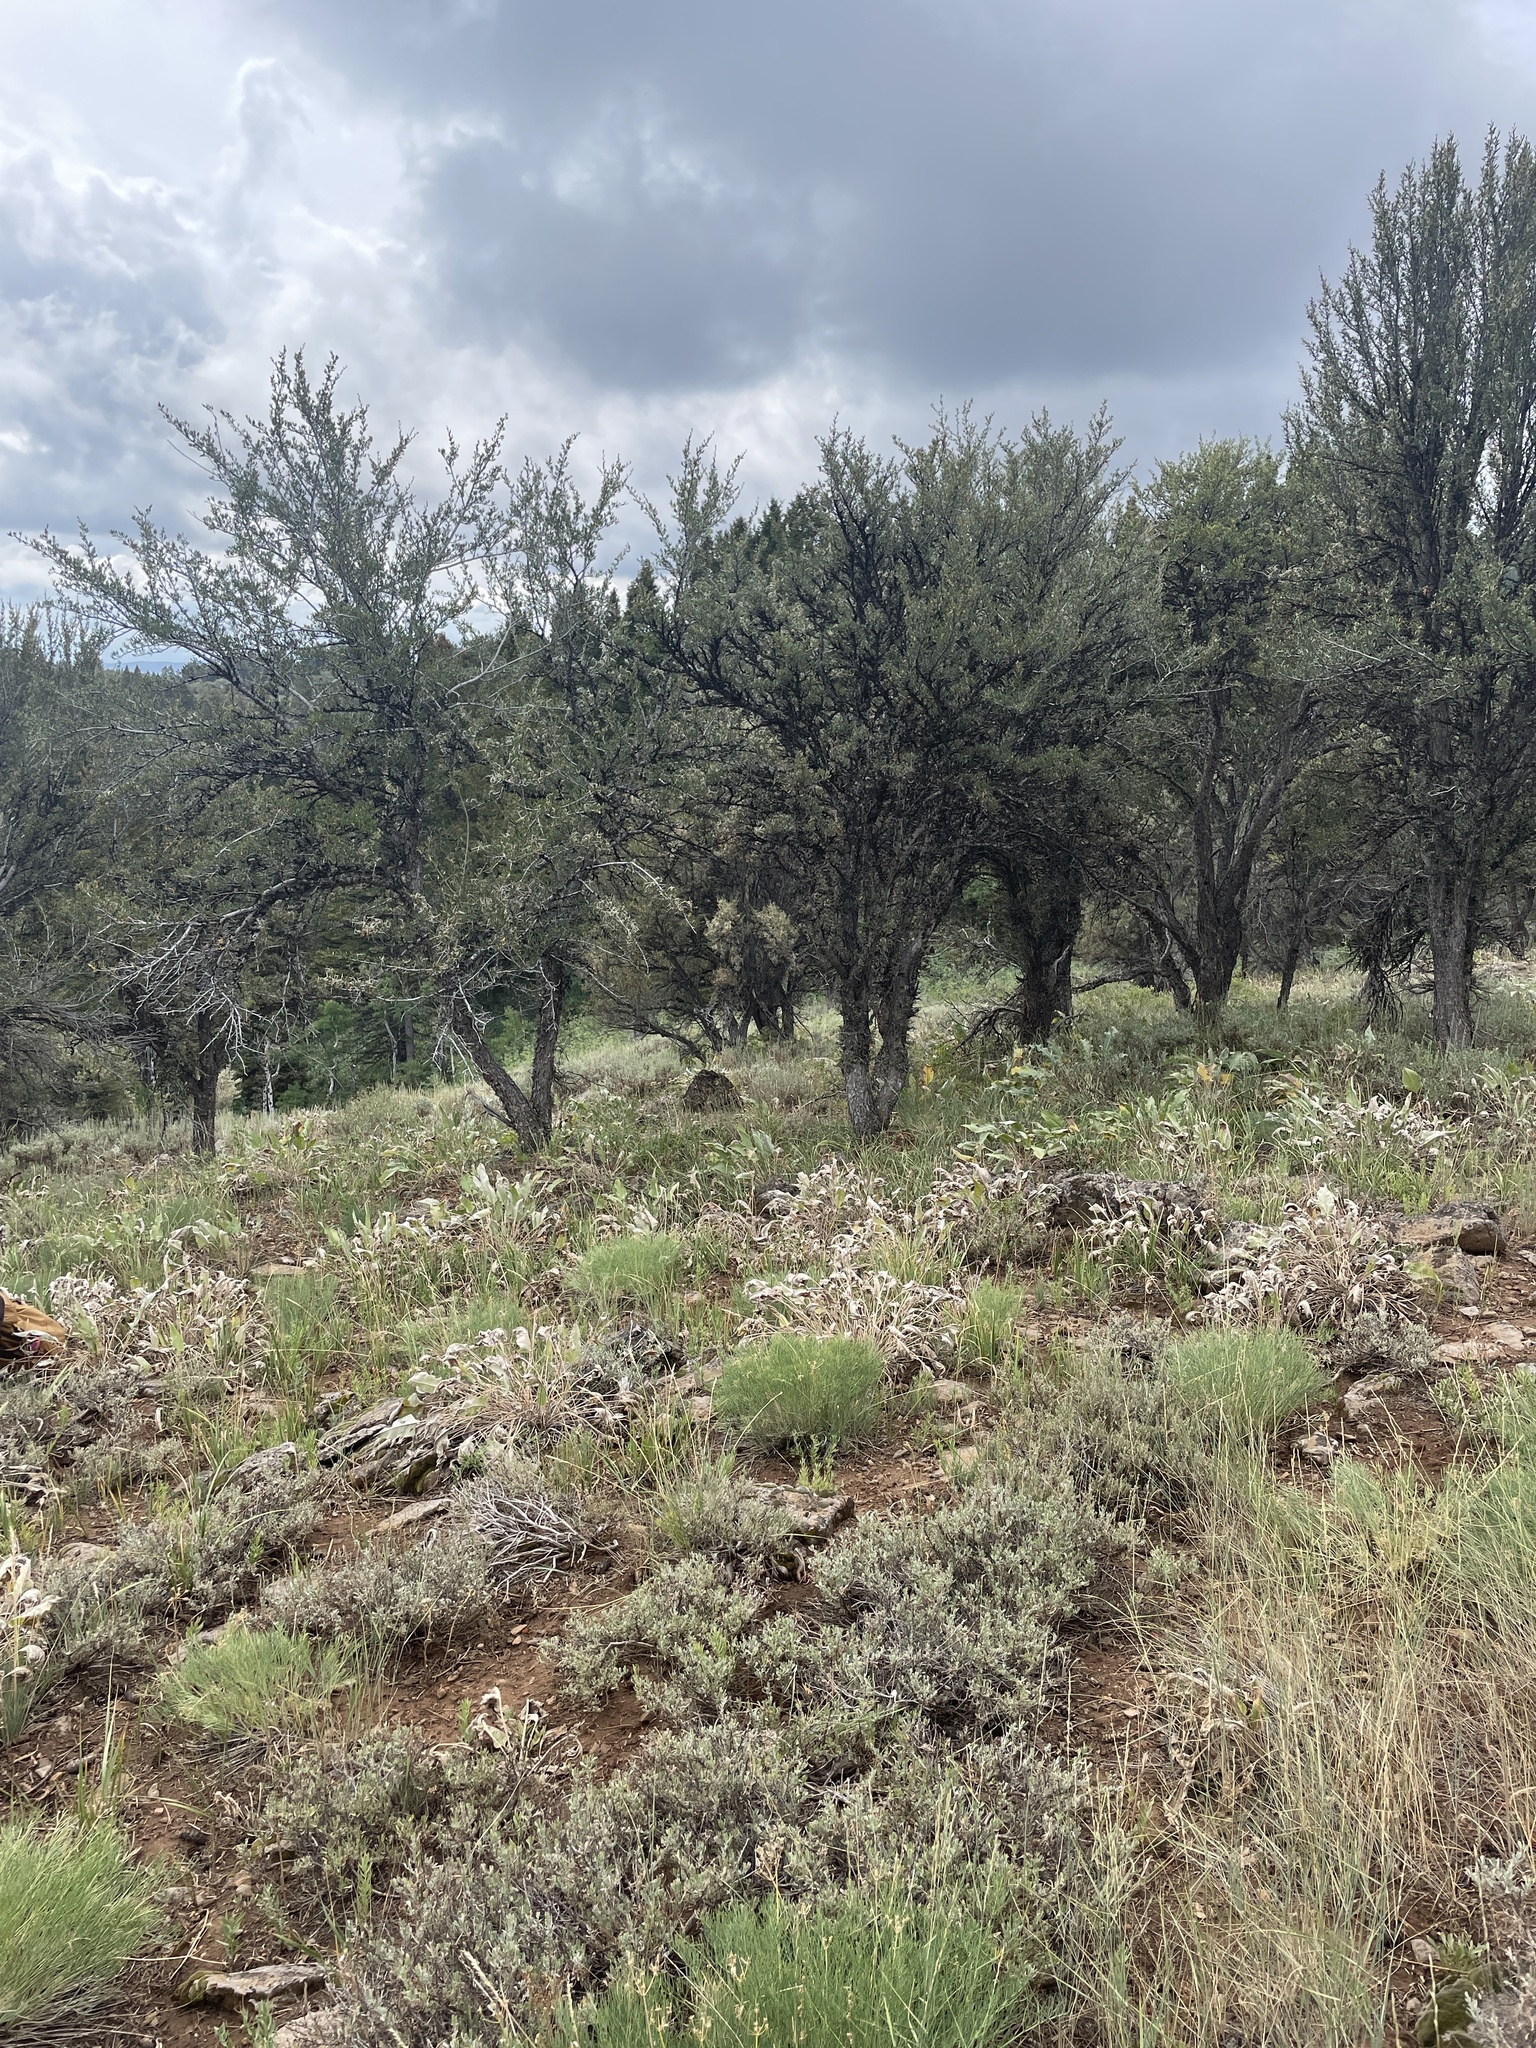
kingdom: Plantae
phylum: Tracheophyta
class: Magnoliopsida
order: Rosales
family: Rosaceae
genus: Cercocarpus
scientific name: Cercocarpus ledifolius
